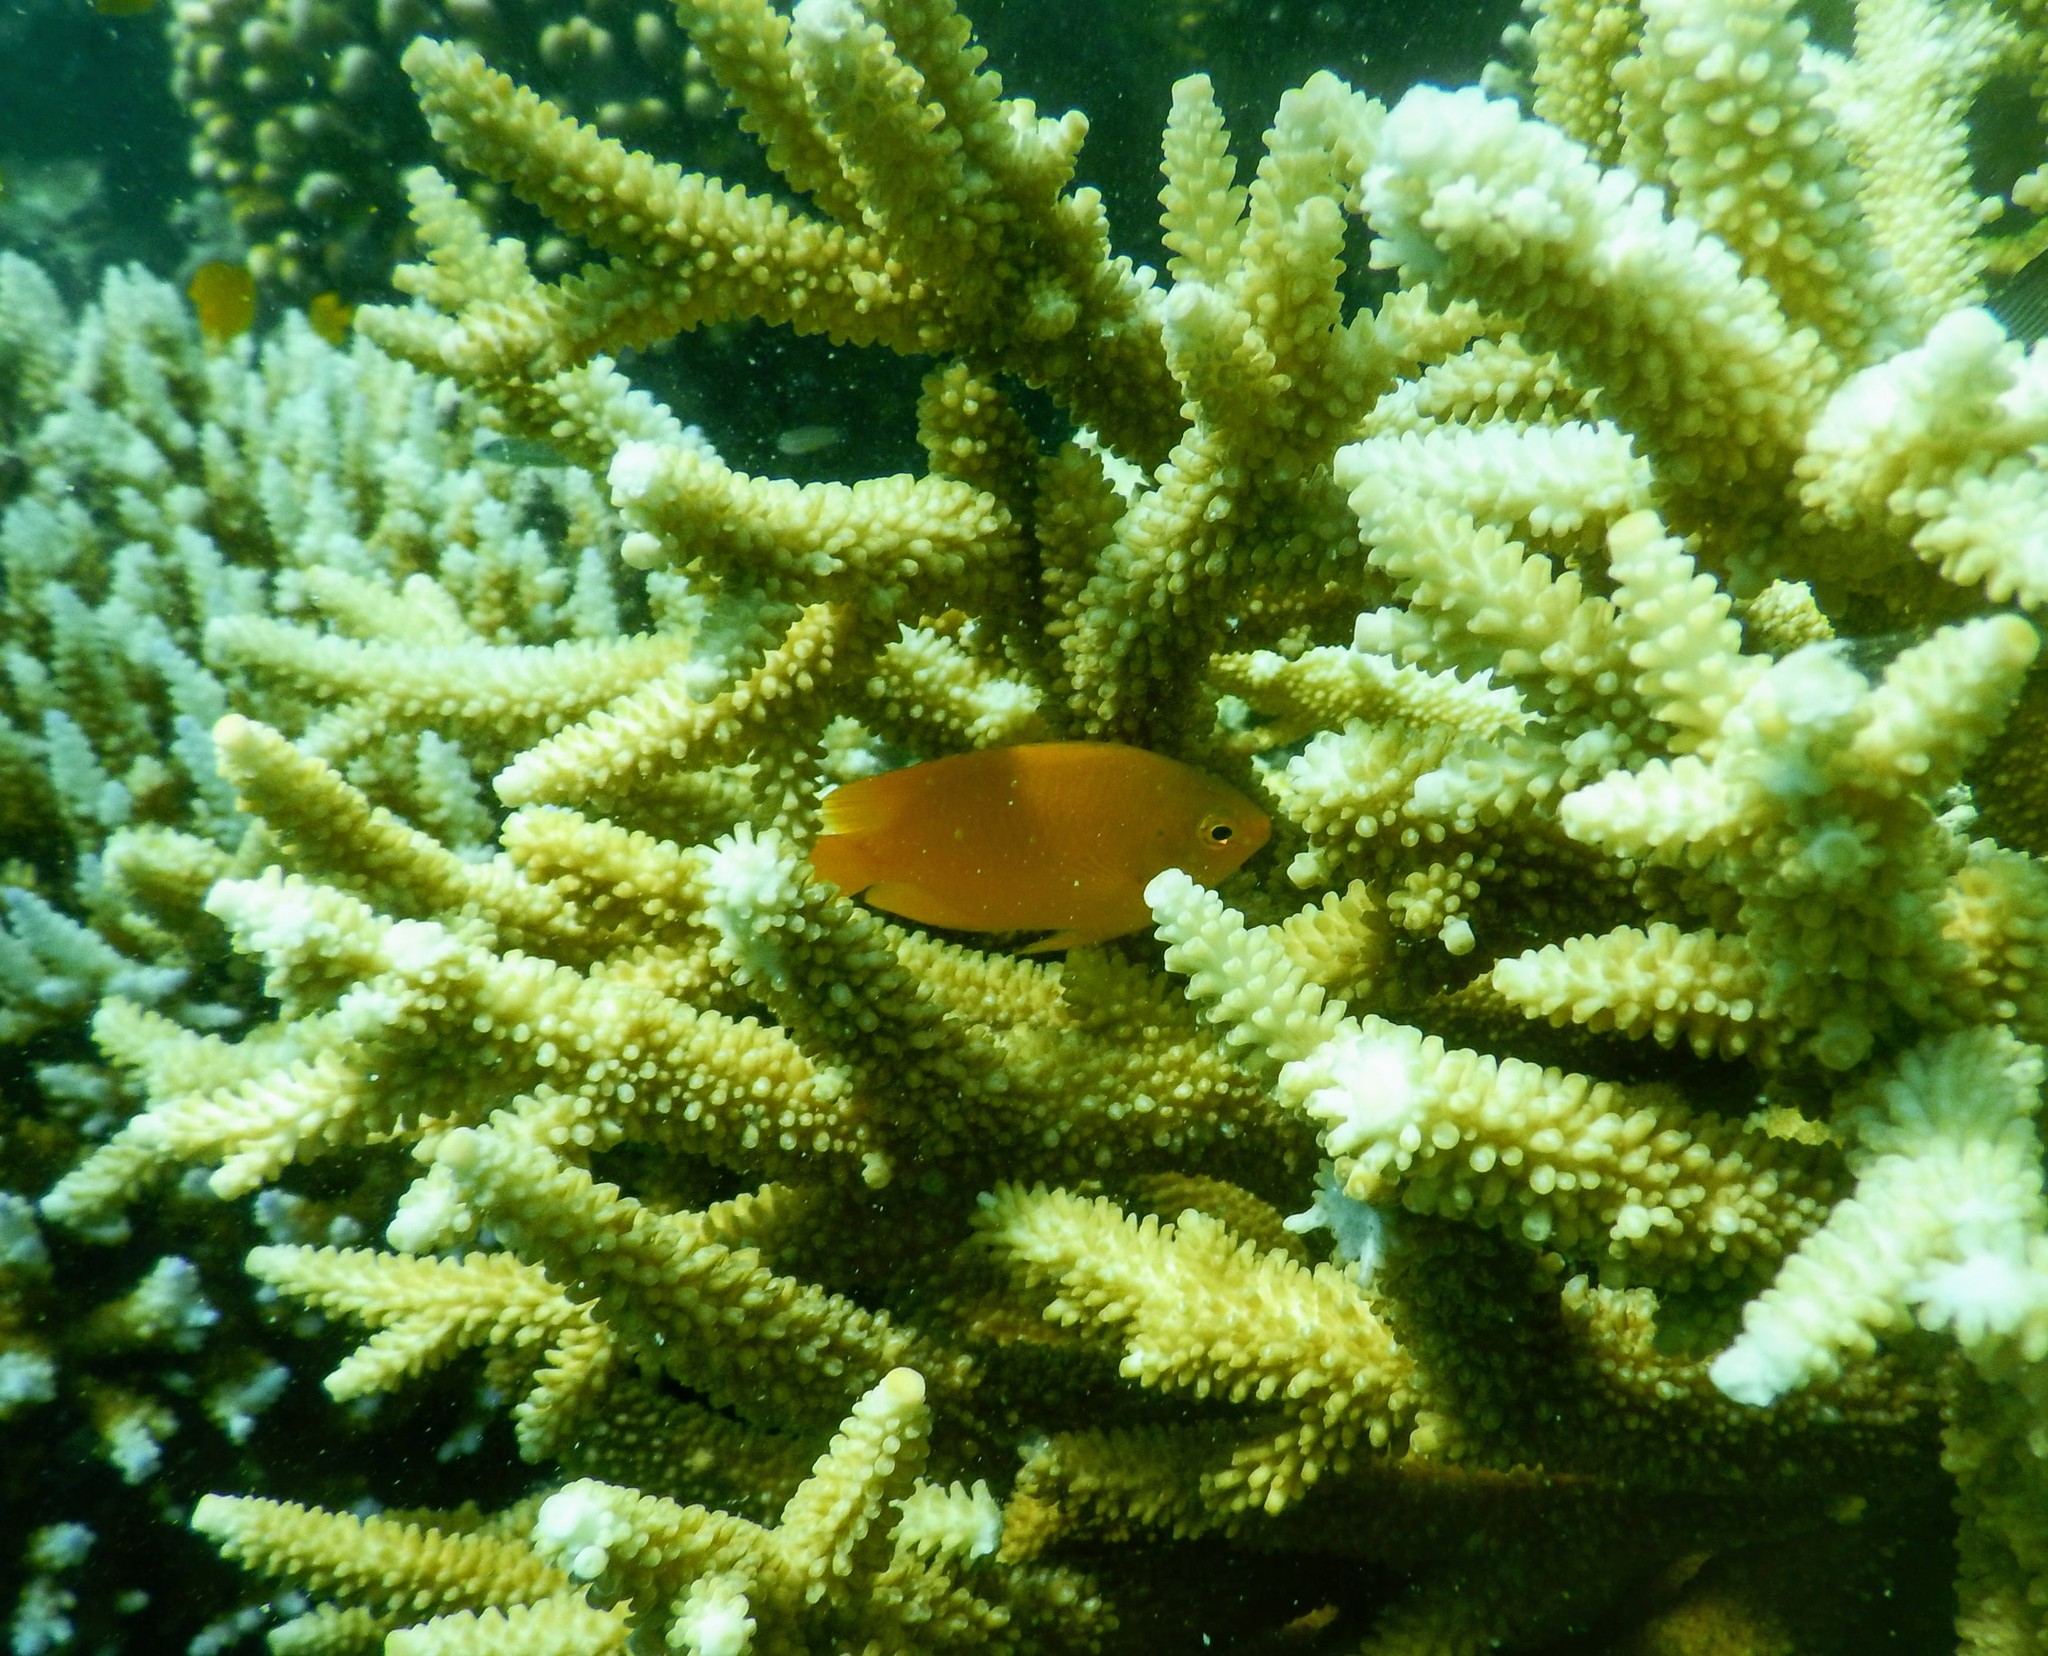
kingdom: Animalia
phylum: Chordata
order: Perciformes
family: Pomacentridae
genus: Pomacentrus
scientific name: Pomacentrus moluccensis
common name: Lemon damsel
